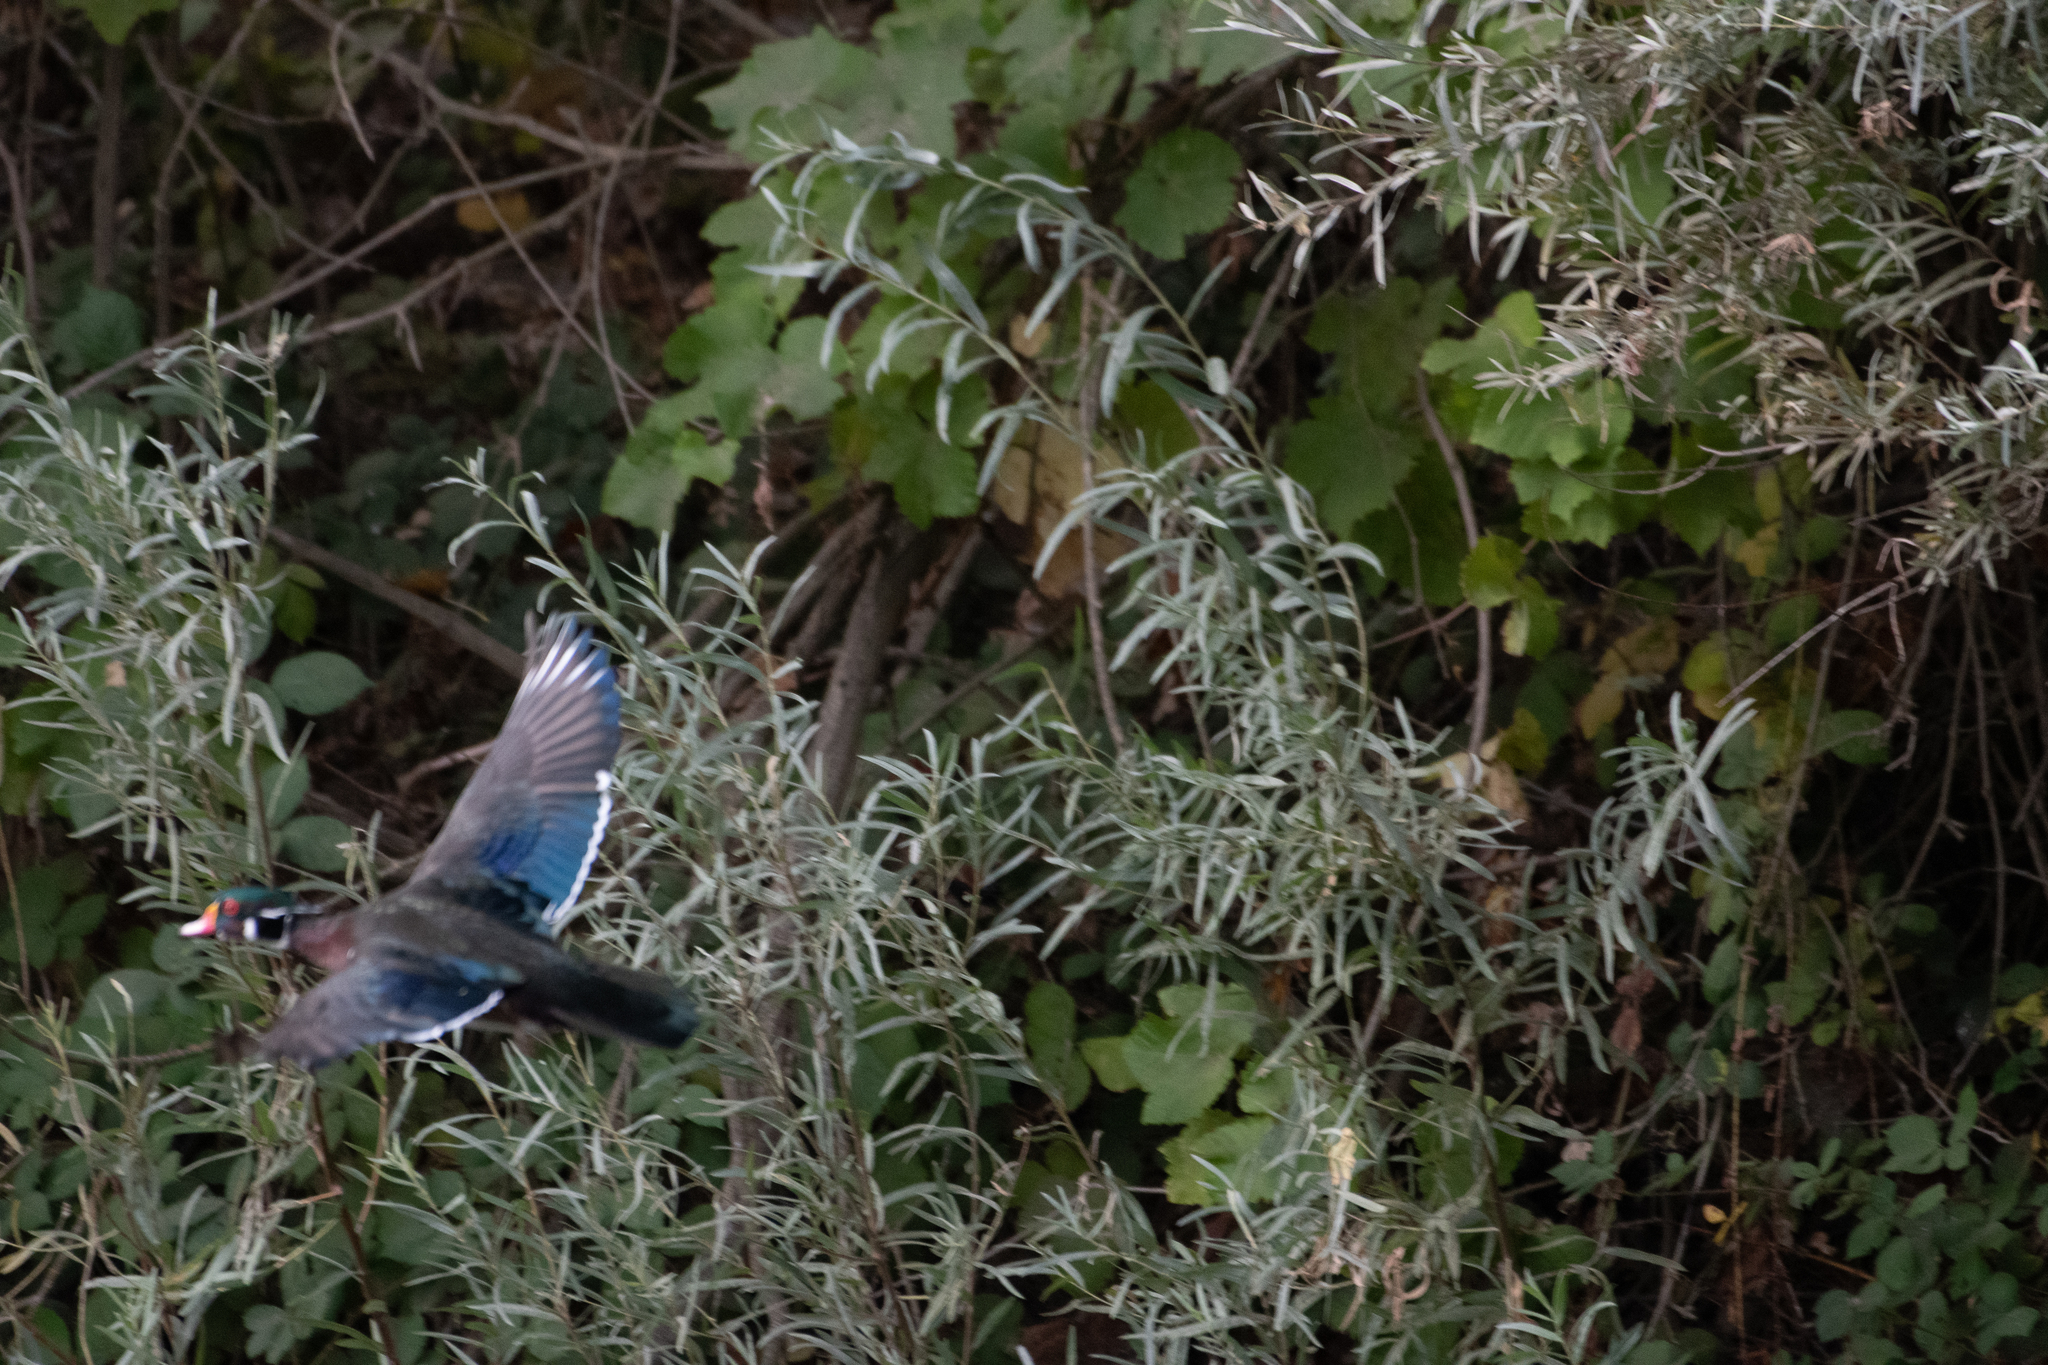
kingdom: Animalia
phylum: Chordata
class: Aves
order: Anseriformes
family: Anatidae
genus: Aix
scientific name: Aix sponsa
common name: Wood duck
